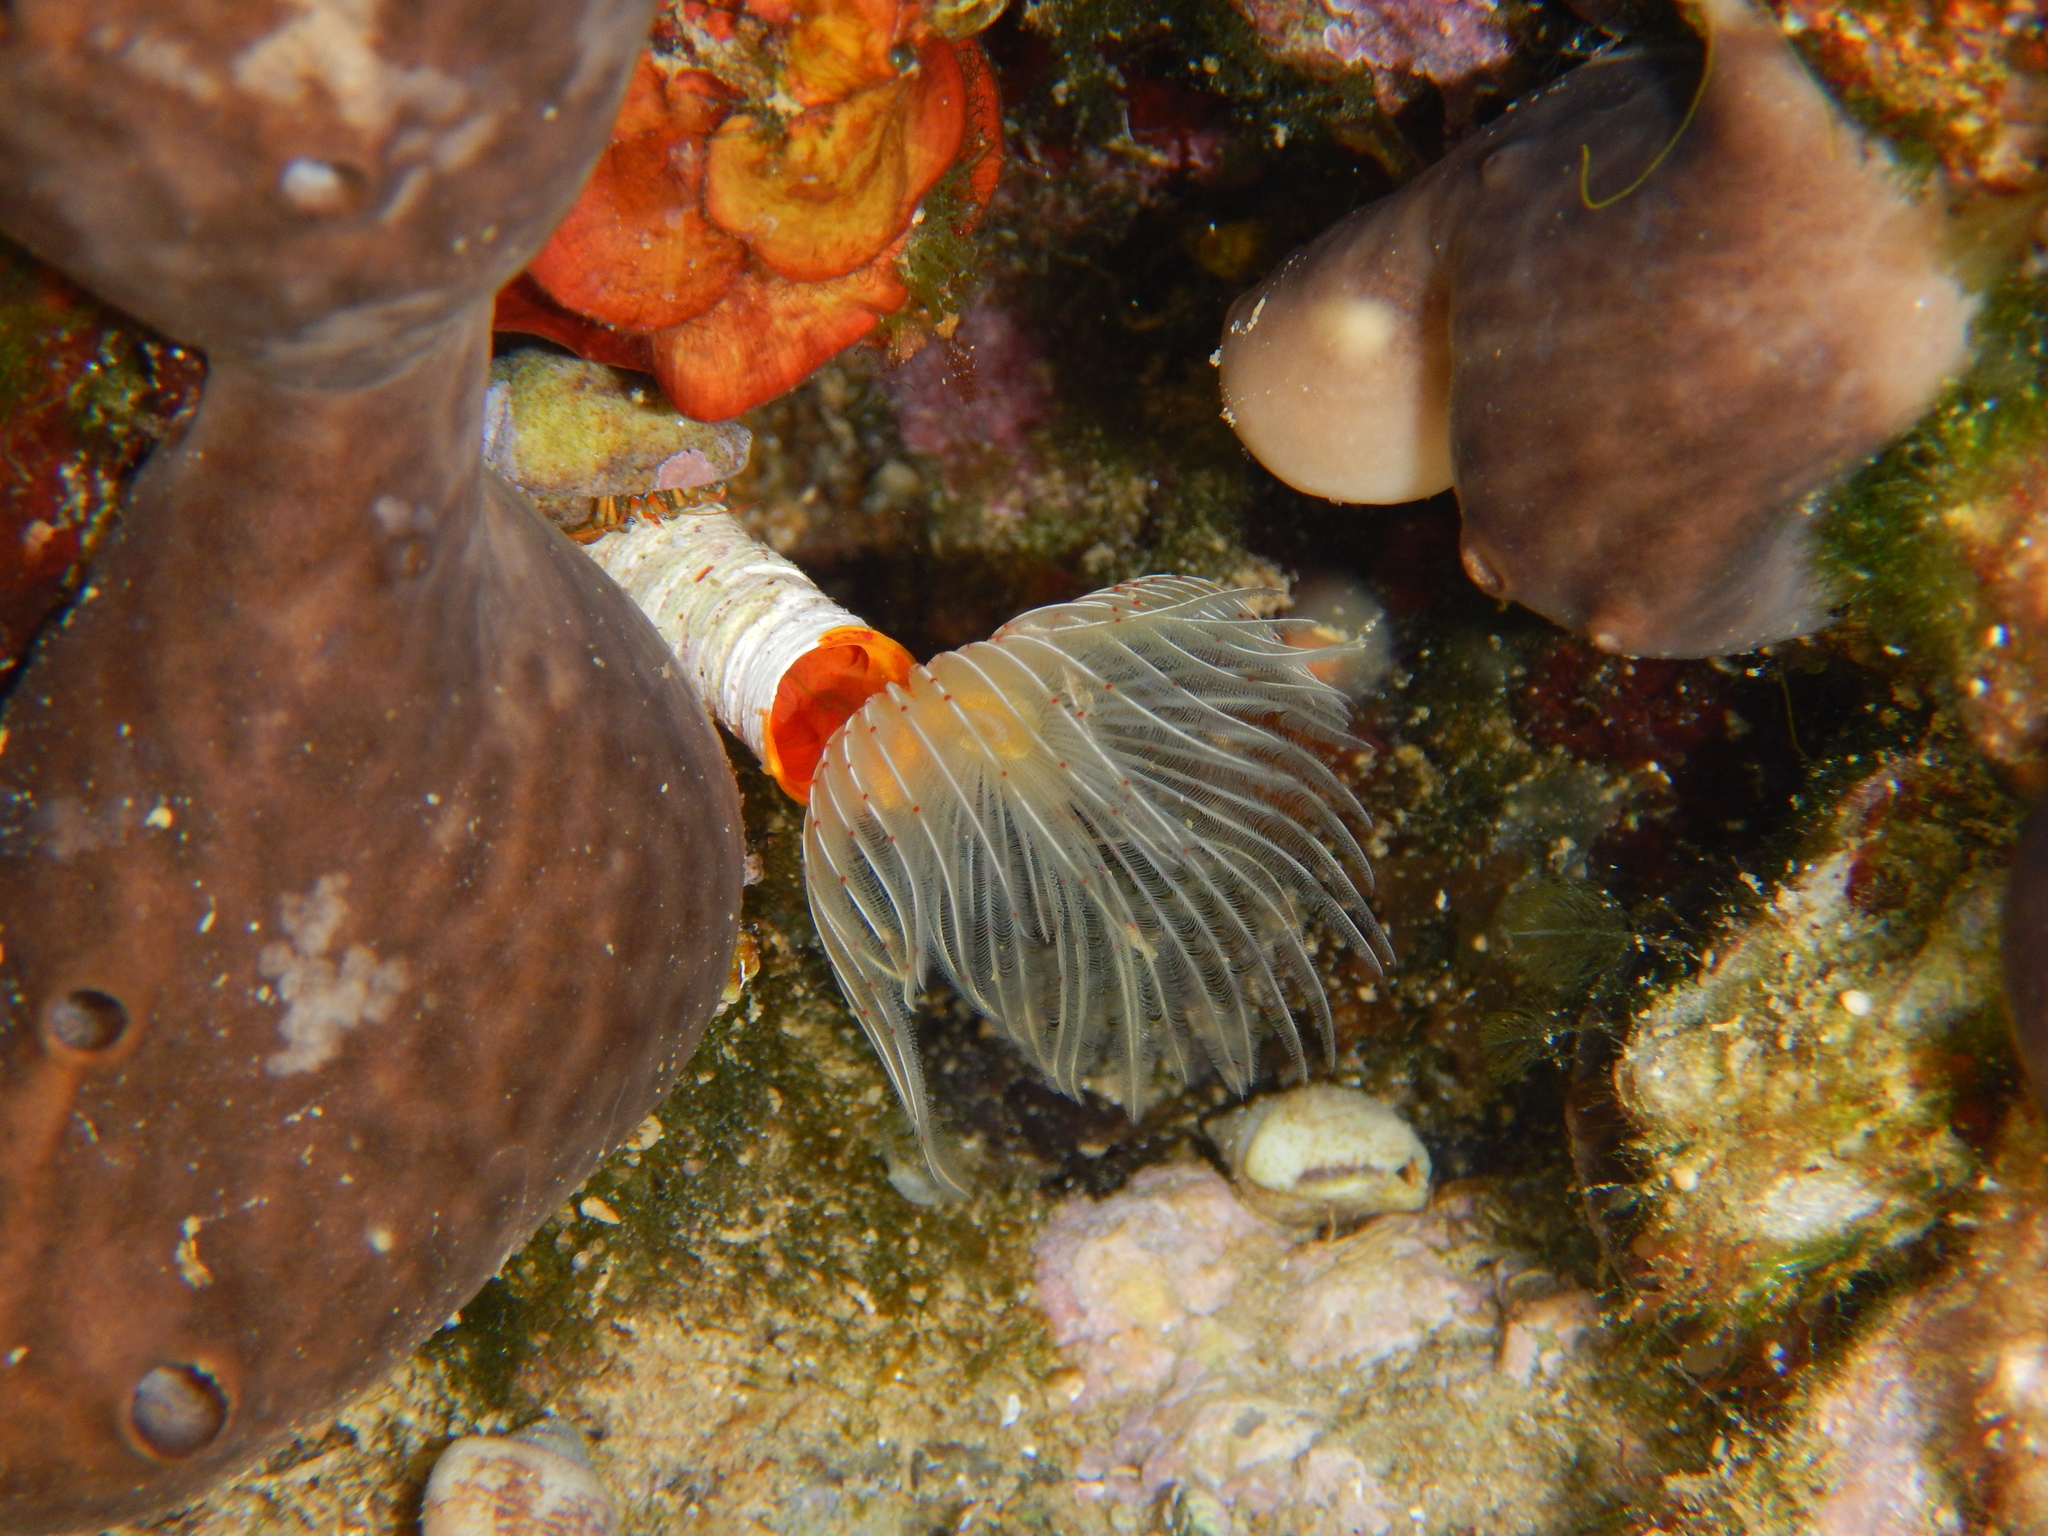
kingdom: Animalia
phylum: Annelida
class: Polychaeta
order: Sabellida
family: Serpulidae
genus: Protula
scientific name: Protula tubularia
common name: Red-spotted horseshoe
